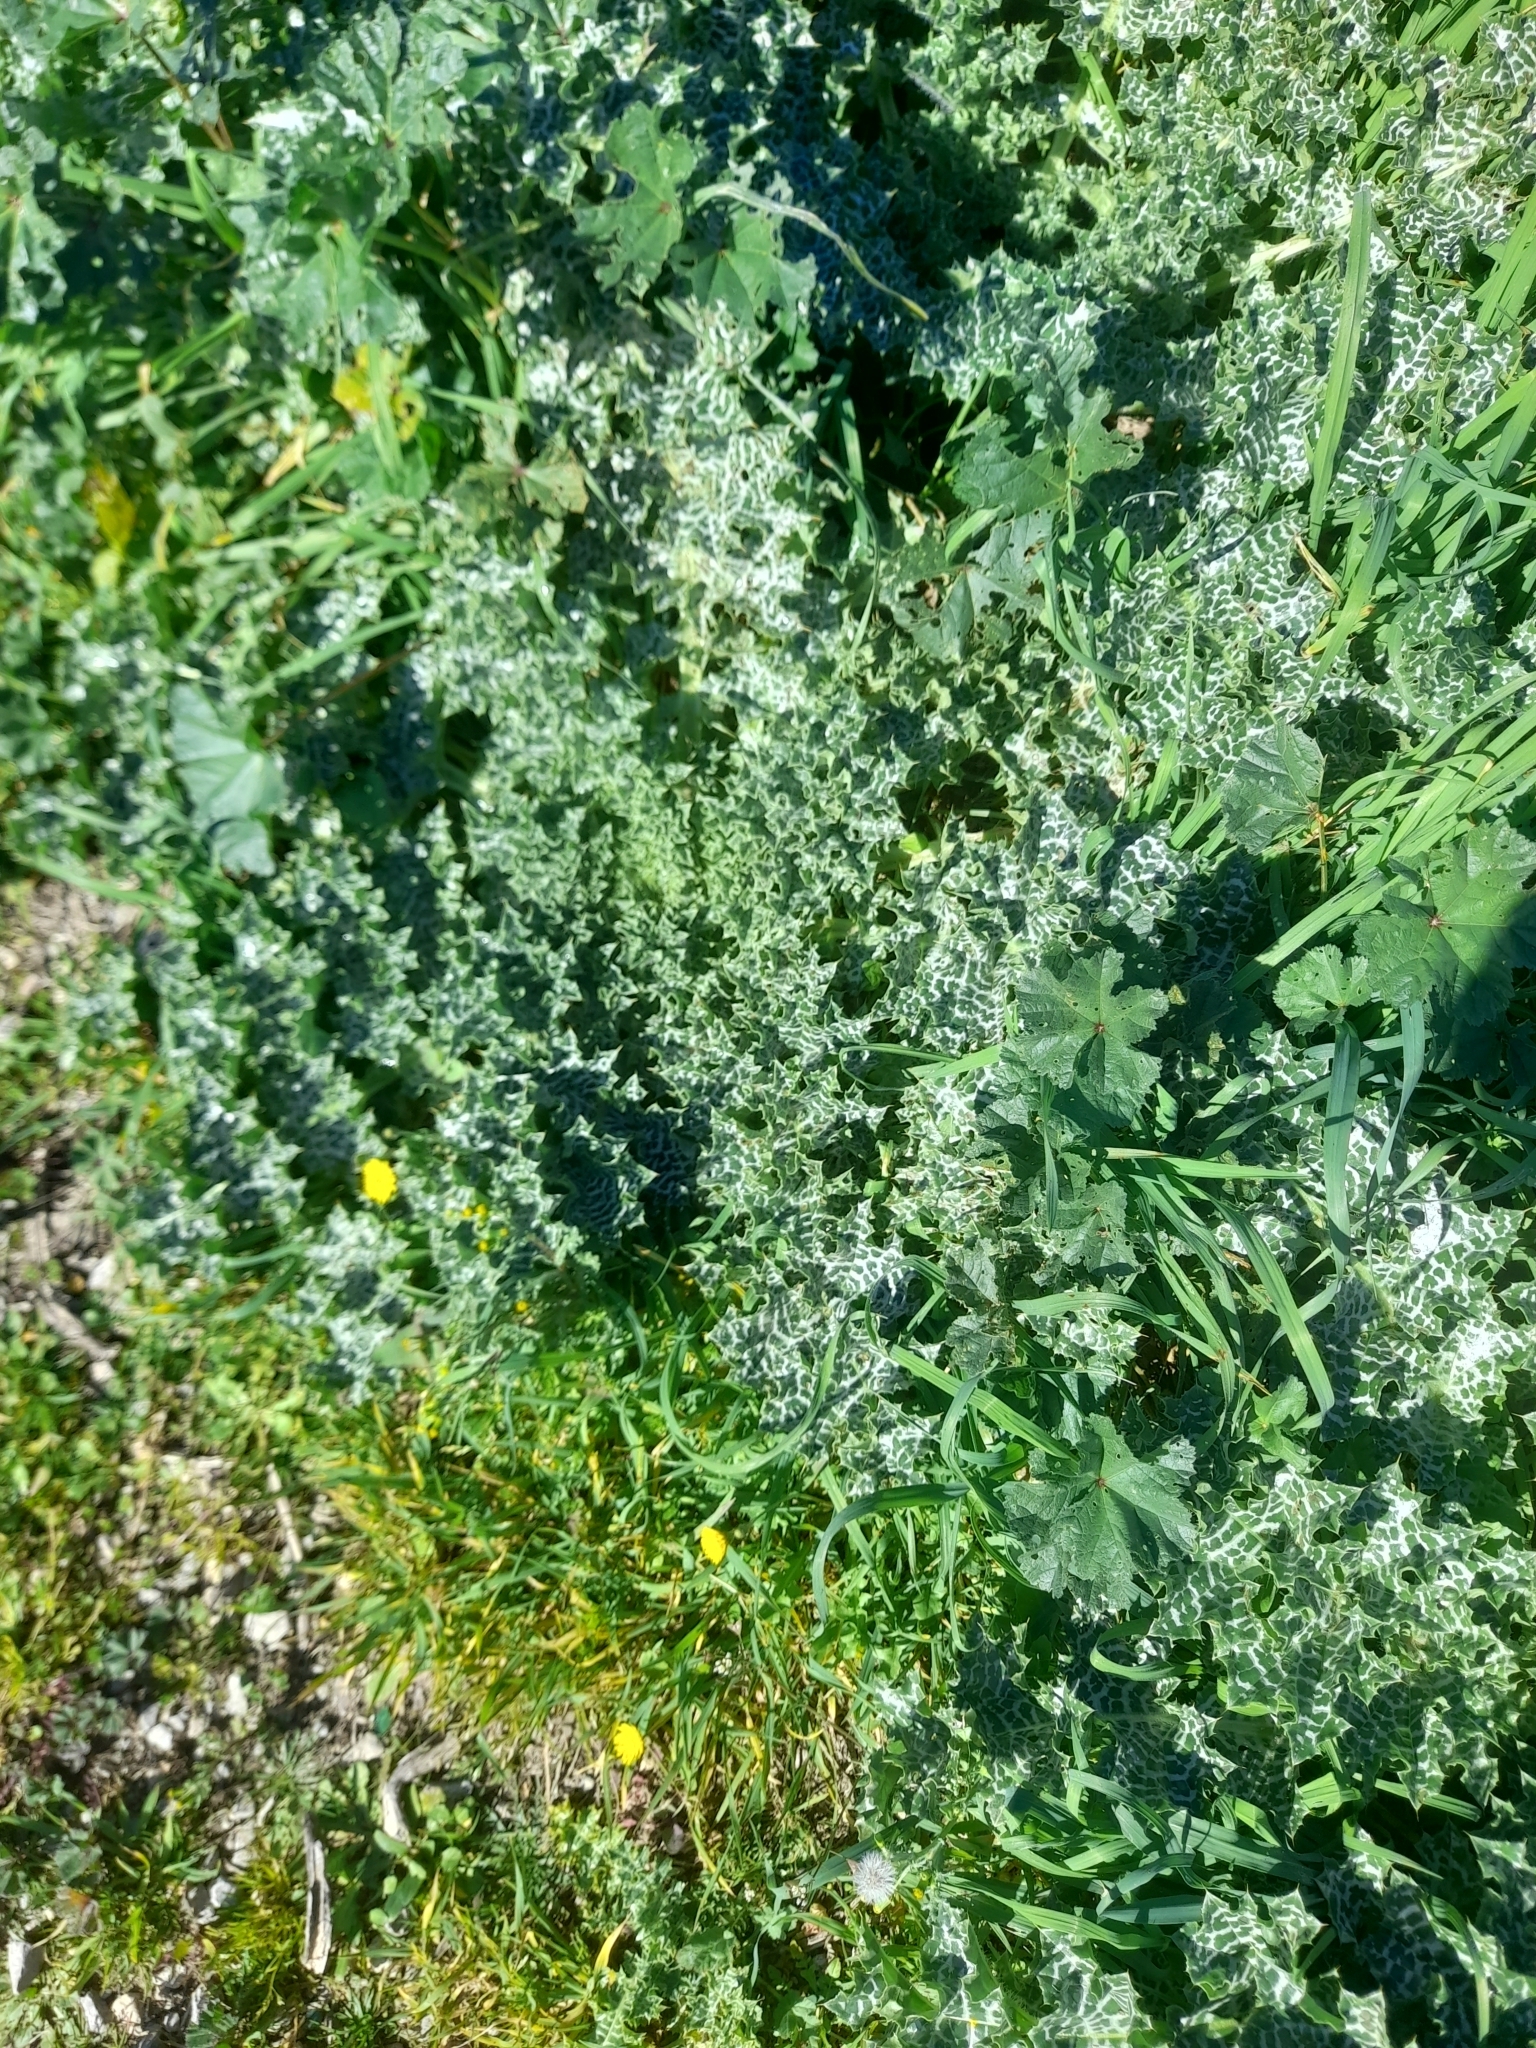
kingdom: Plantae
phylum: Tracheophyta
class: Magnoliopsida
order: Asterales
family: Asteraceae
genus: Silybum
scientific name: Silybum marianum
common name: Milk thistle
